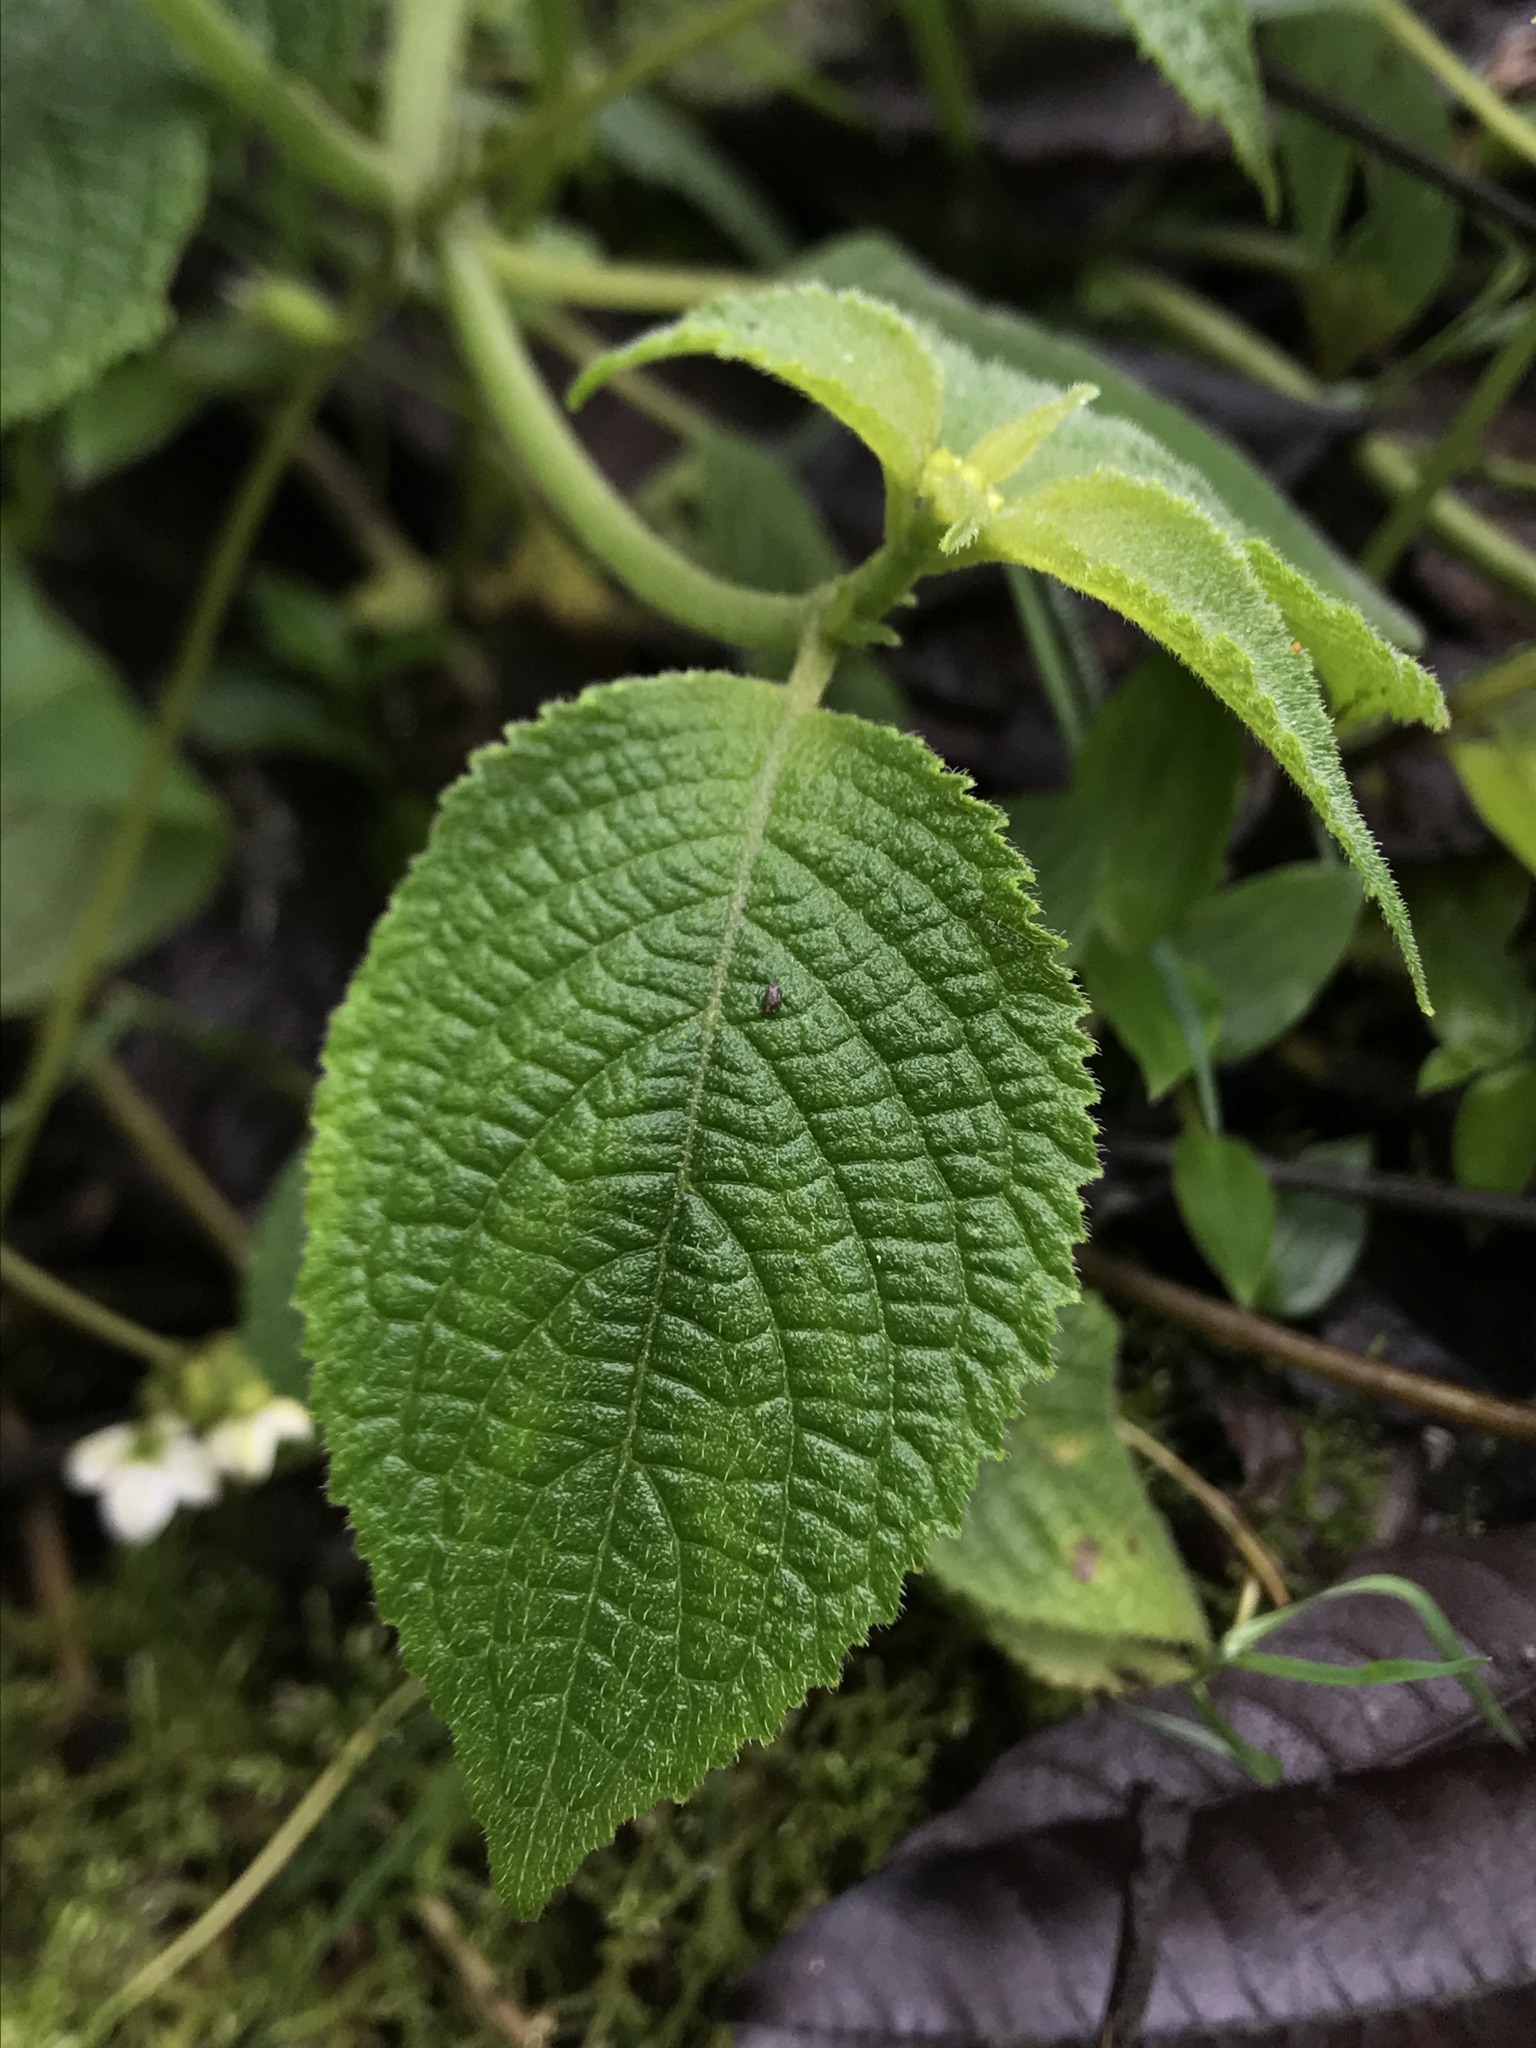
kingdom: Plantae
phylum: Tracheophyta
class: Magnoliopsida
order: Cornales
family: Loasaceae
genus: Klaprothia
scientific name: Klaprothia mentzelioides
